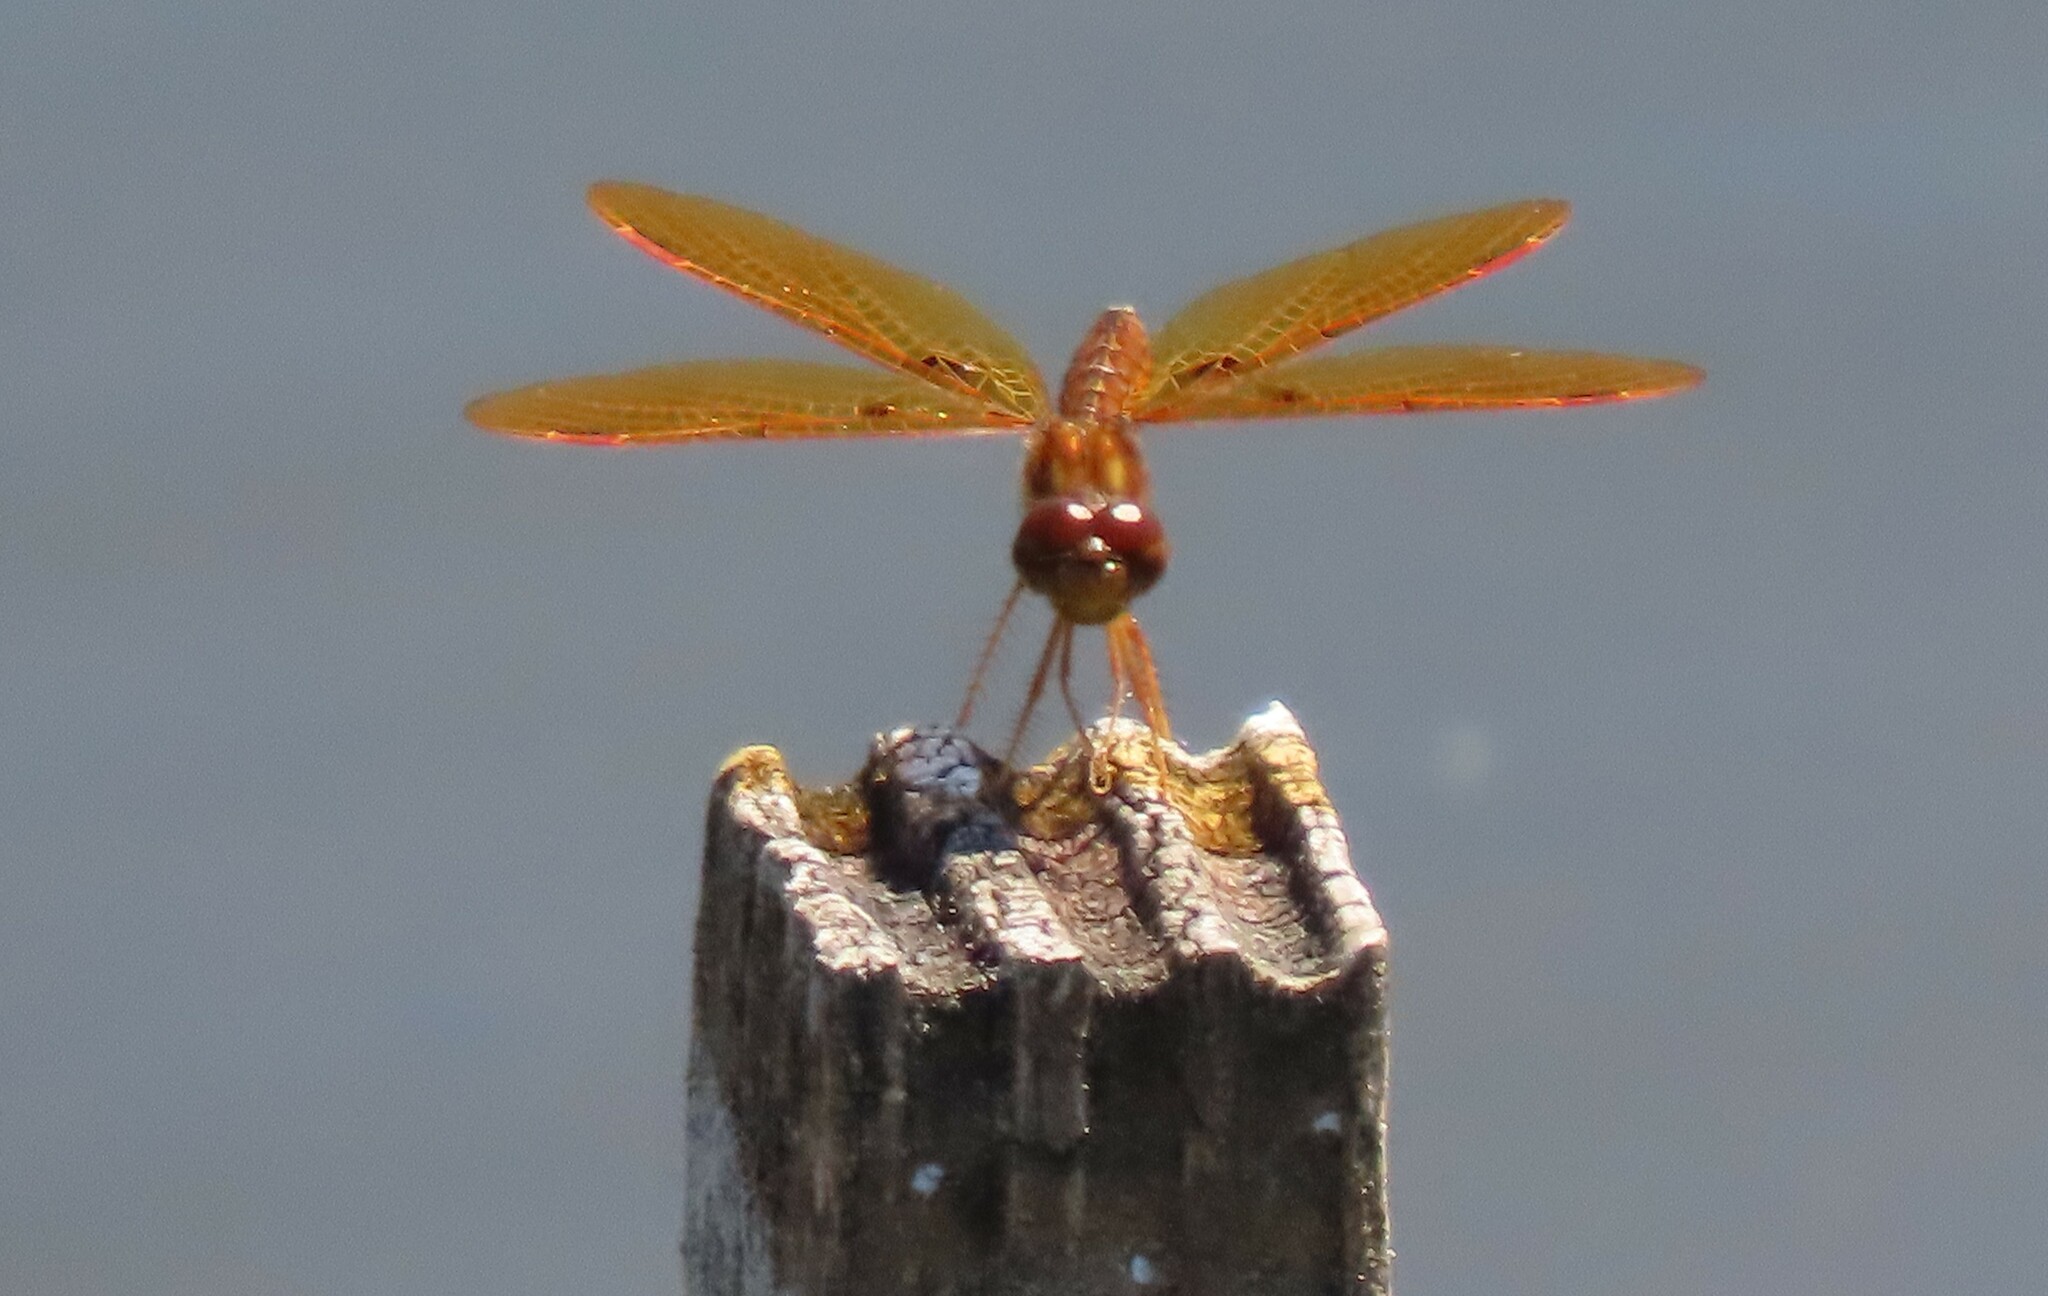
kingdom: Animalia
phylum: Arthropoda
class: Insecta
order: Odonata
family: Libellulidae
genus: Perithemis
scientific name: Perithemis tenera
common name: Eastern amberwing
